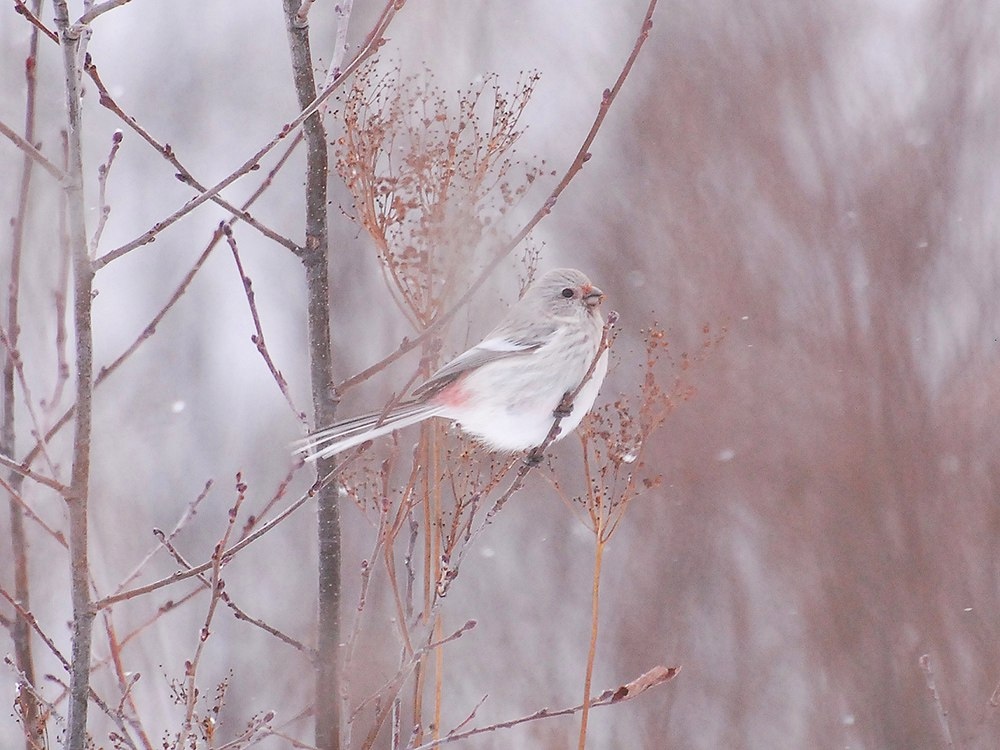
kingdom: Animalia
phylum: Chordata
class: Aves
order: Passeriformes
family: Fringillidae
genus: Carpodacus
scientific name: Carpodacus sibiricus
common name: Long-tailed rosefinch
